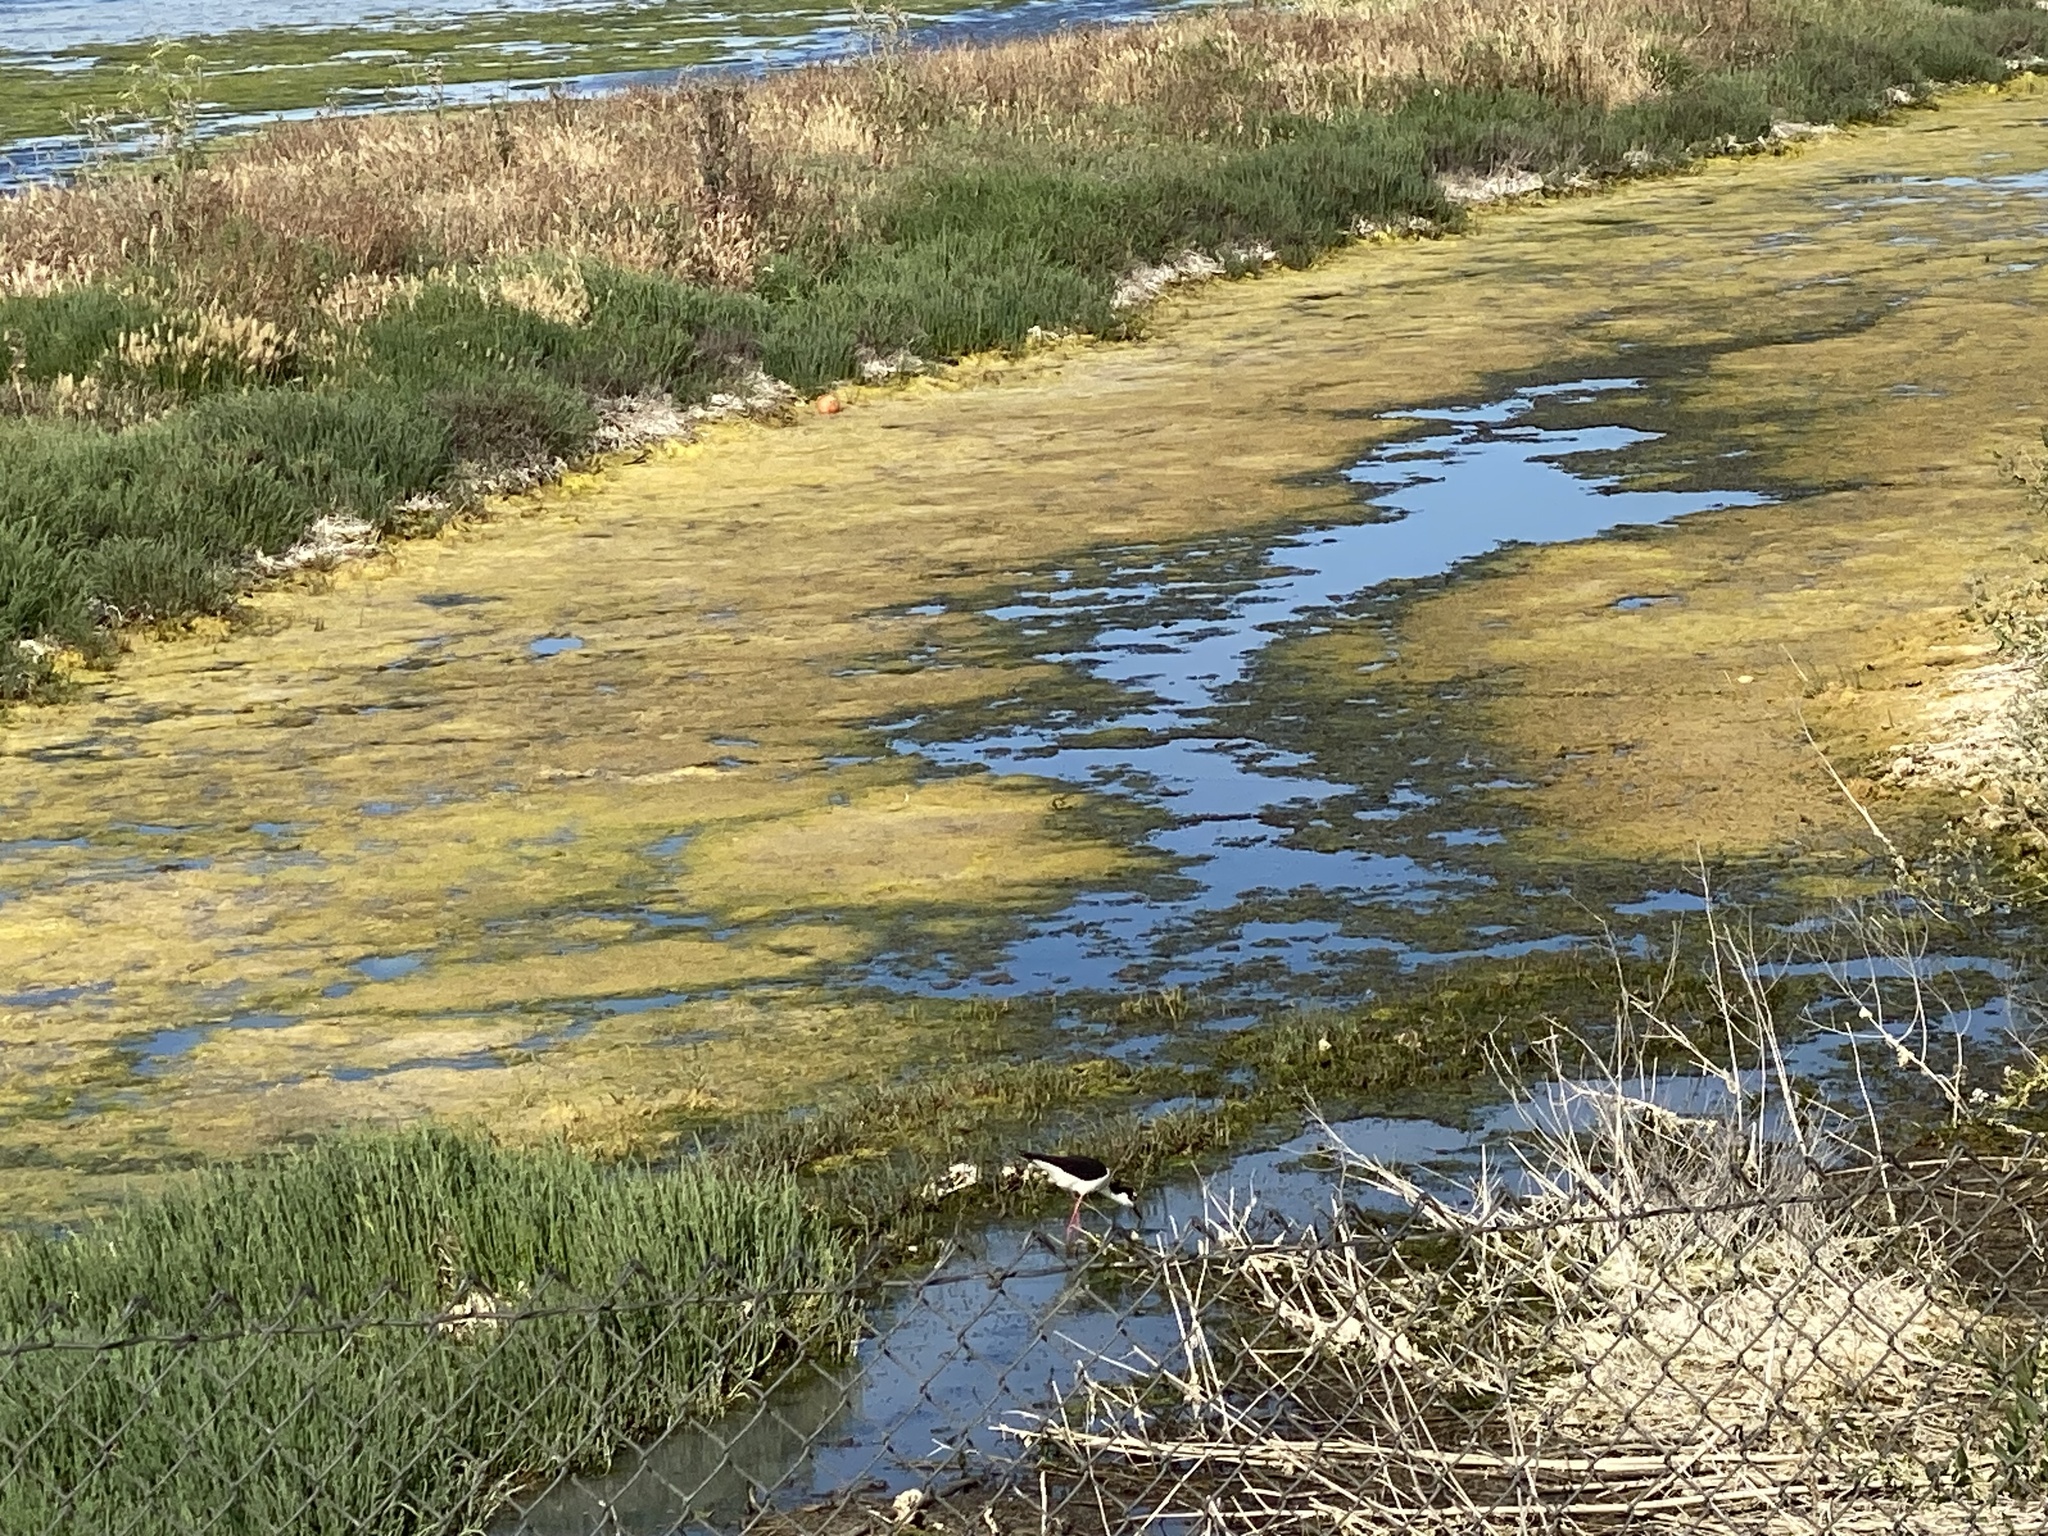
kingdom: Animalia
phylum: Chordata
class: Aves
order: Charadriiformes
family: Recurvirostridae
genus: Himantopus
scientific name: Himantopus mexicanus
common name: Black-necked stilt
